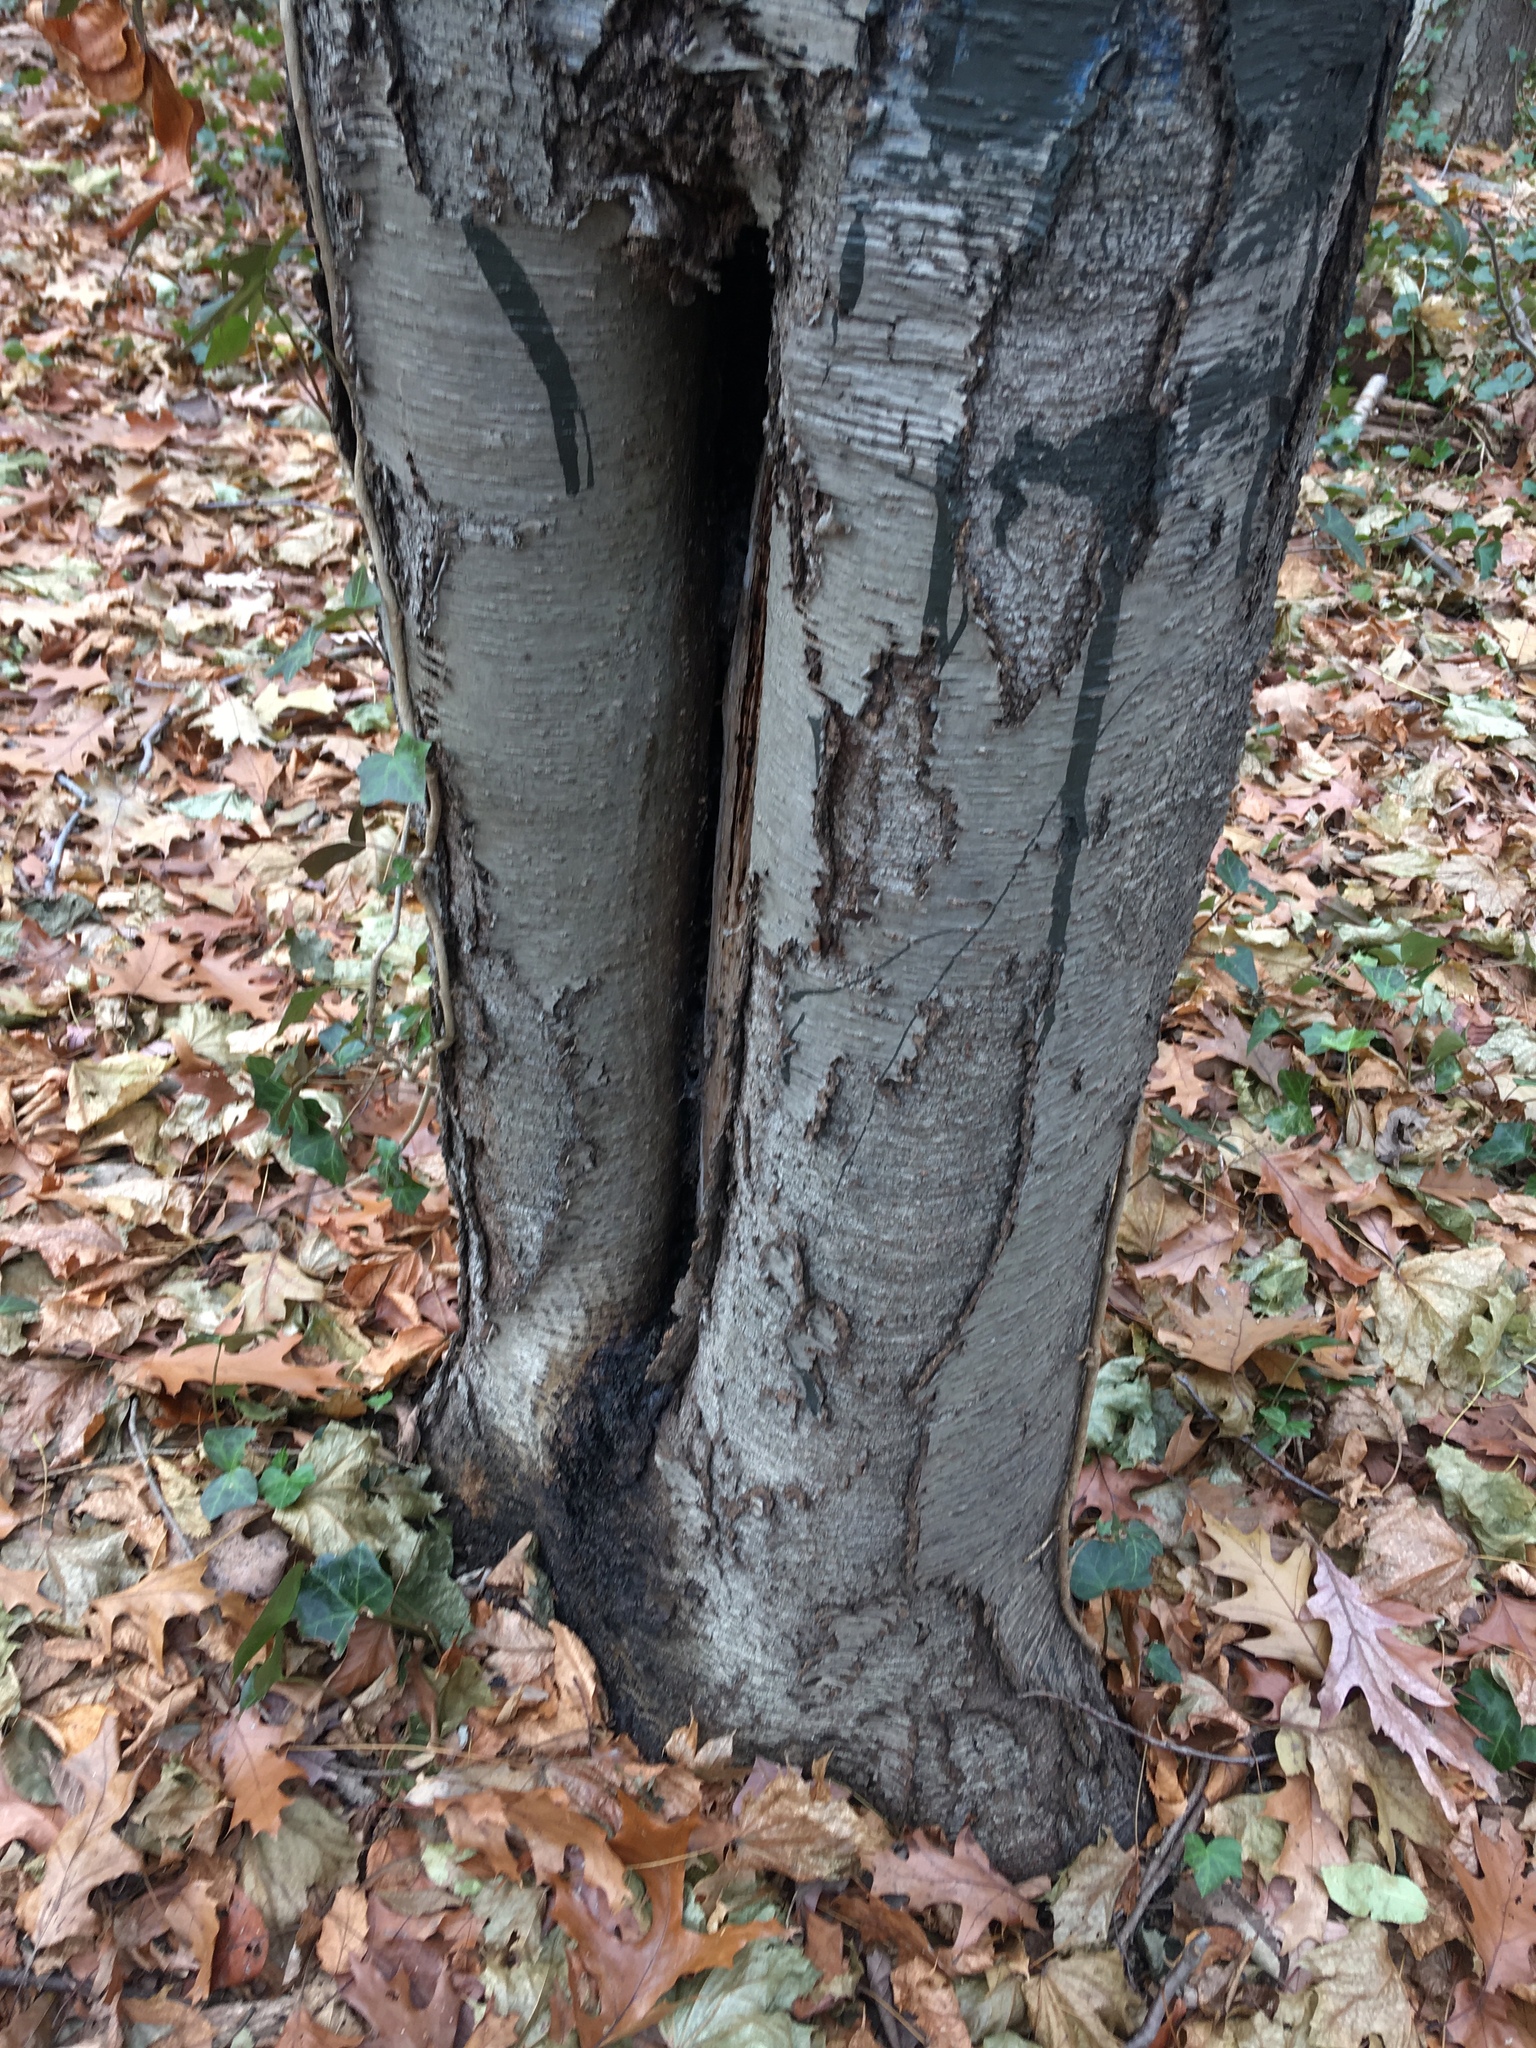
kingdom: Plantae
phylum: Tracheophyta
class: Magnoliopsida
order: Fagales
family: Betulaceae
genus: Betula
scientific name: Betula lenta
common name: Black birch
